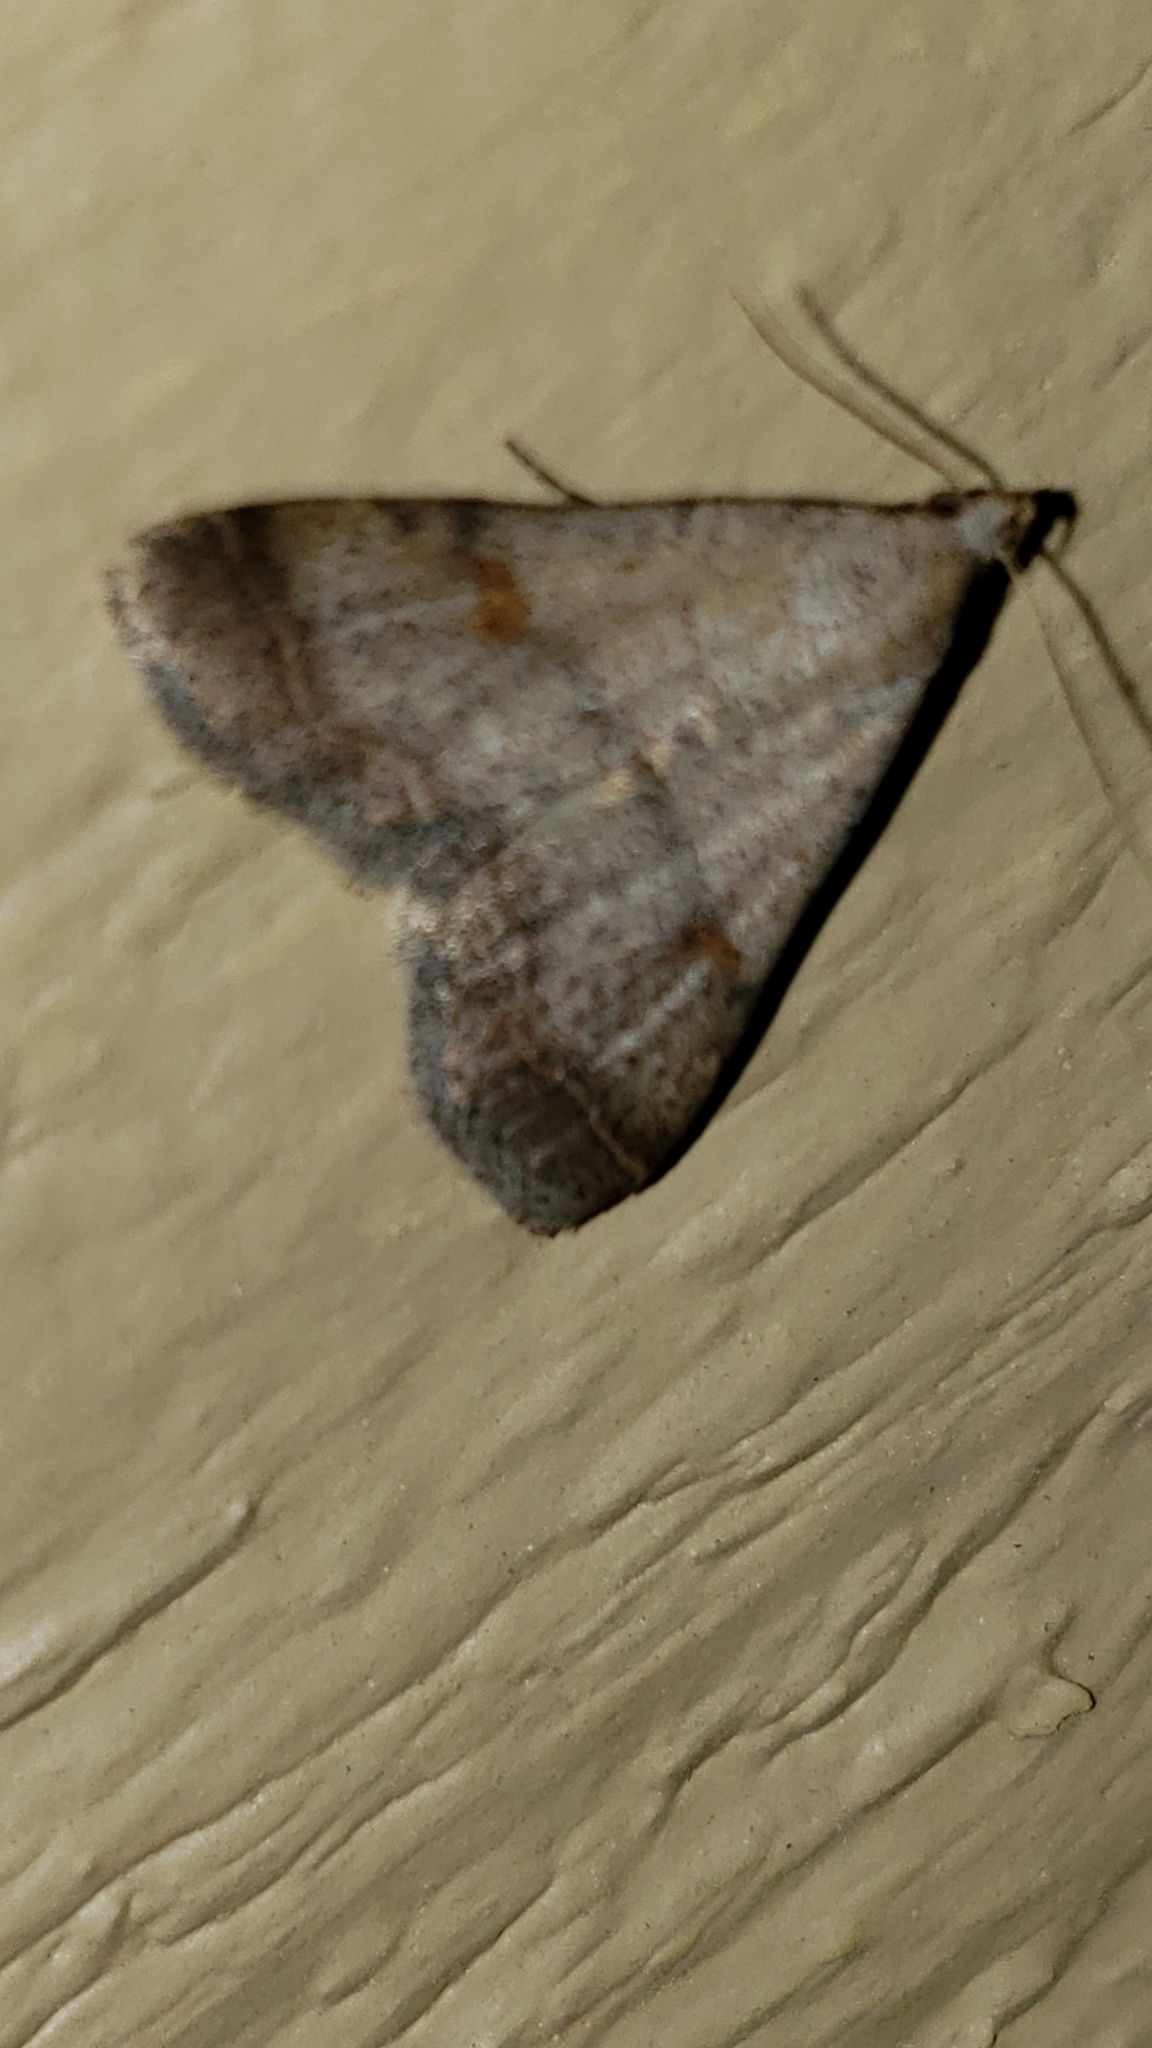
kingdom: Animalia
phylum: Arthropoda
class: Insecta
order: Lepidoptera
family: Erebidae
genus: Bleptina
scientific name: Bleptina caradrinalis
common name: Bent-winged owlet
